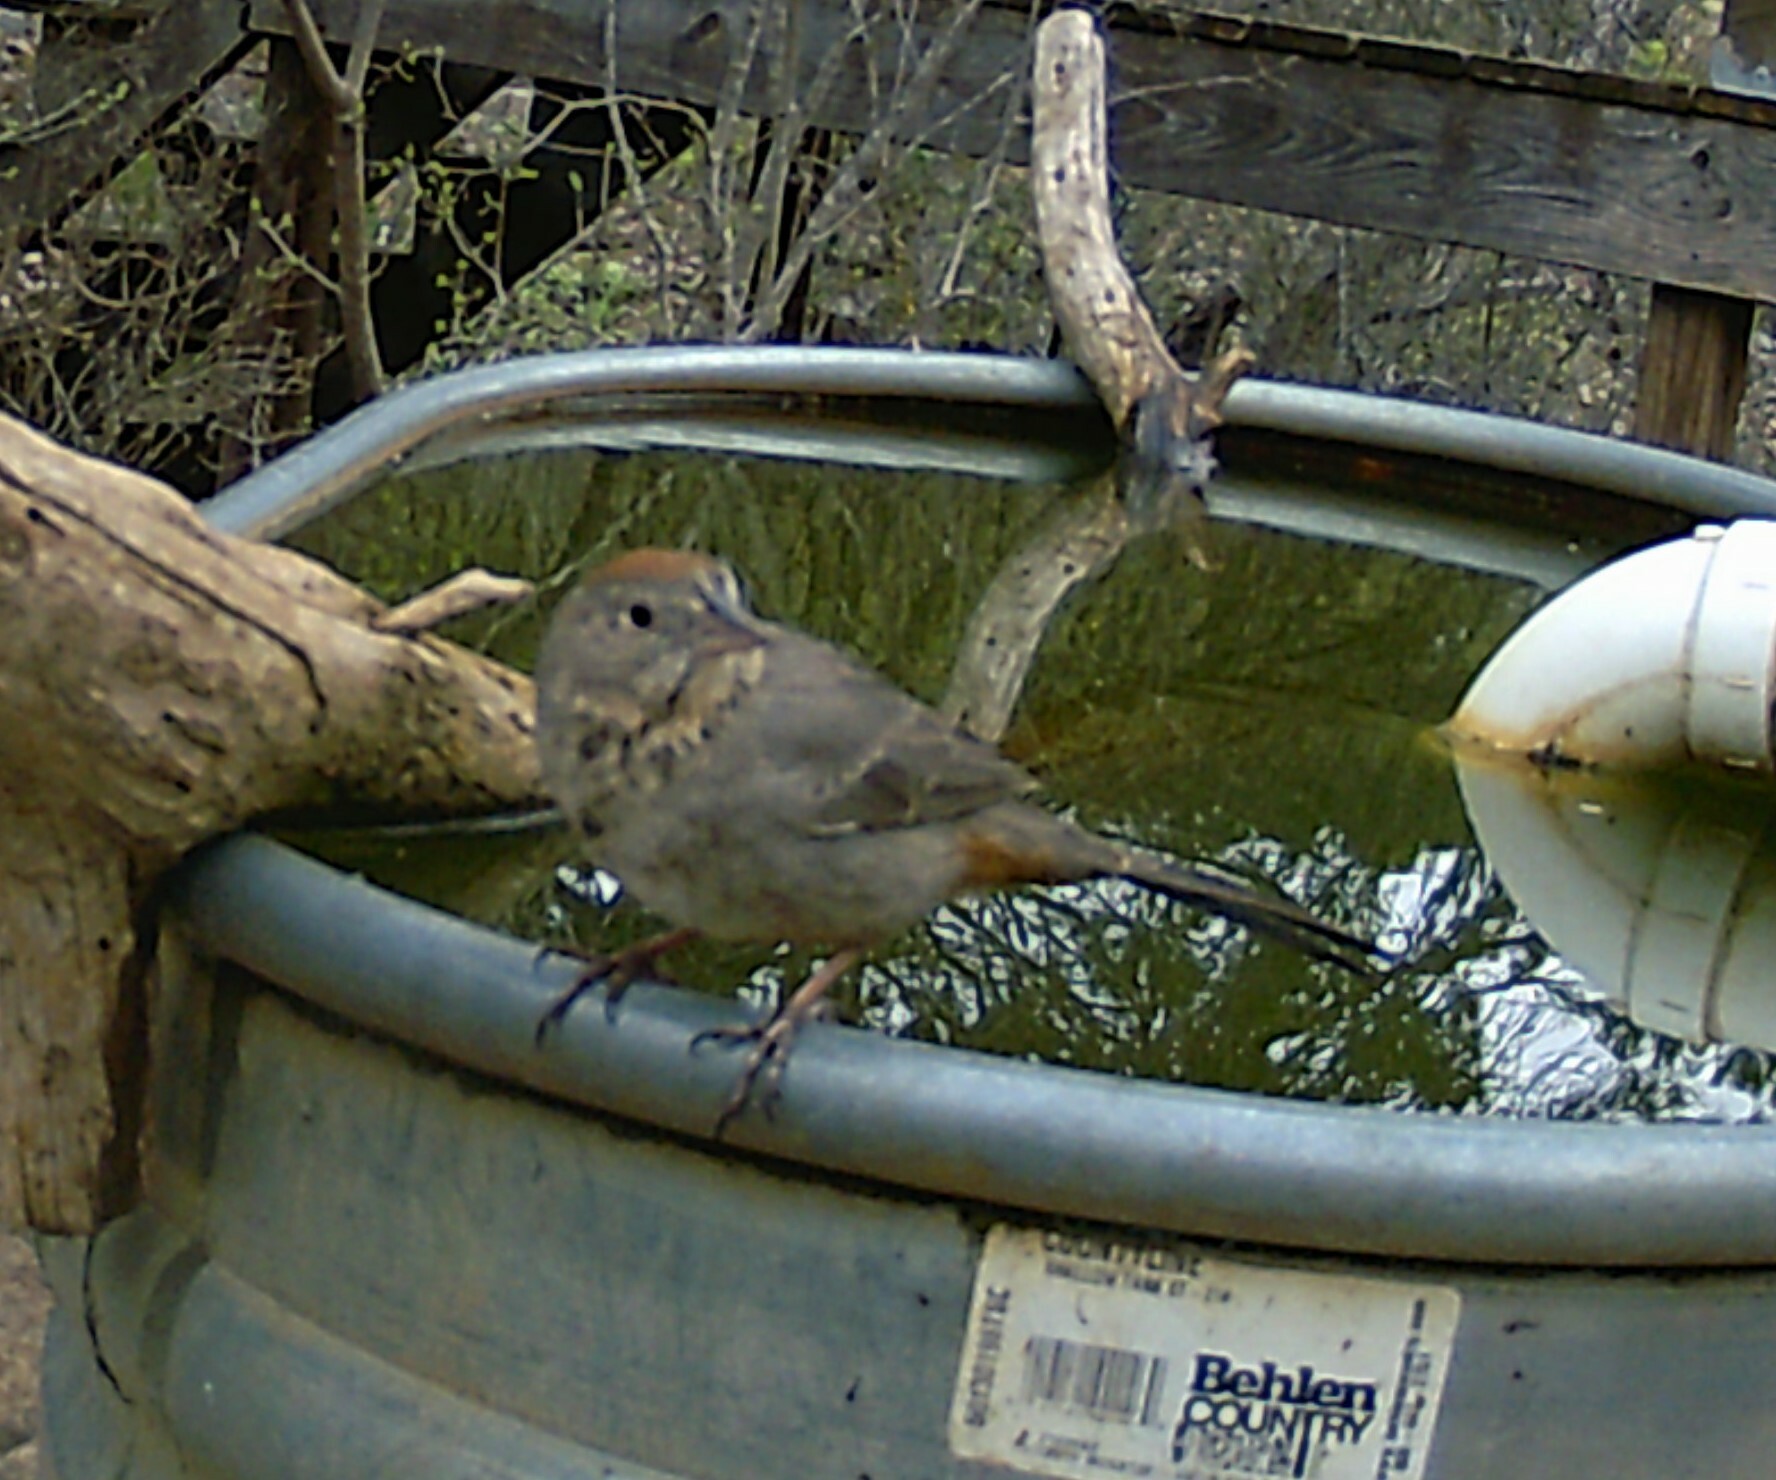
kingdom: Animalia
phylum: Chordata
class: Aves
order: Passeriformes
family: Passerellidae
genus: Melozone
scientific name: Melozone fusca
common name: Canyon towhee
